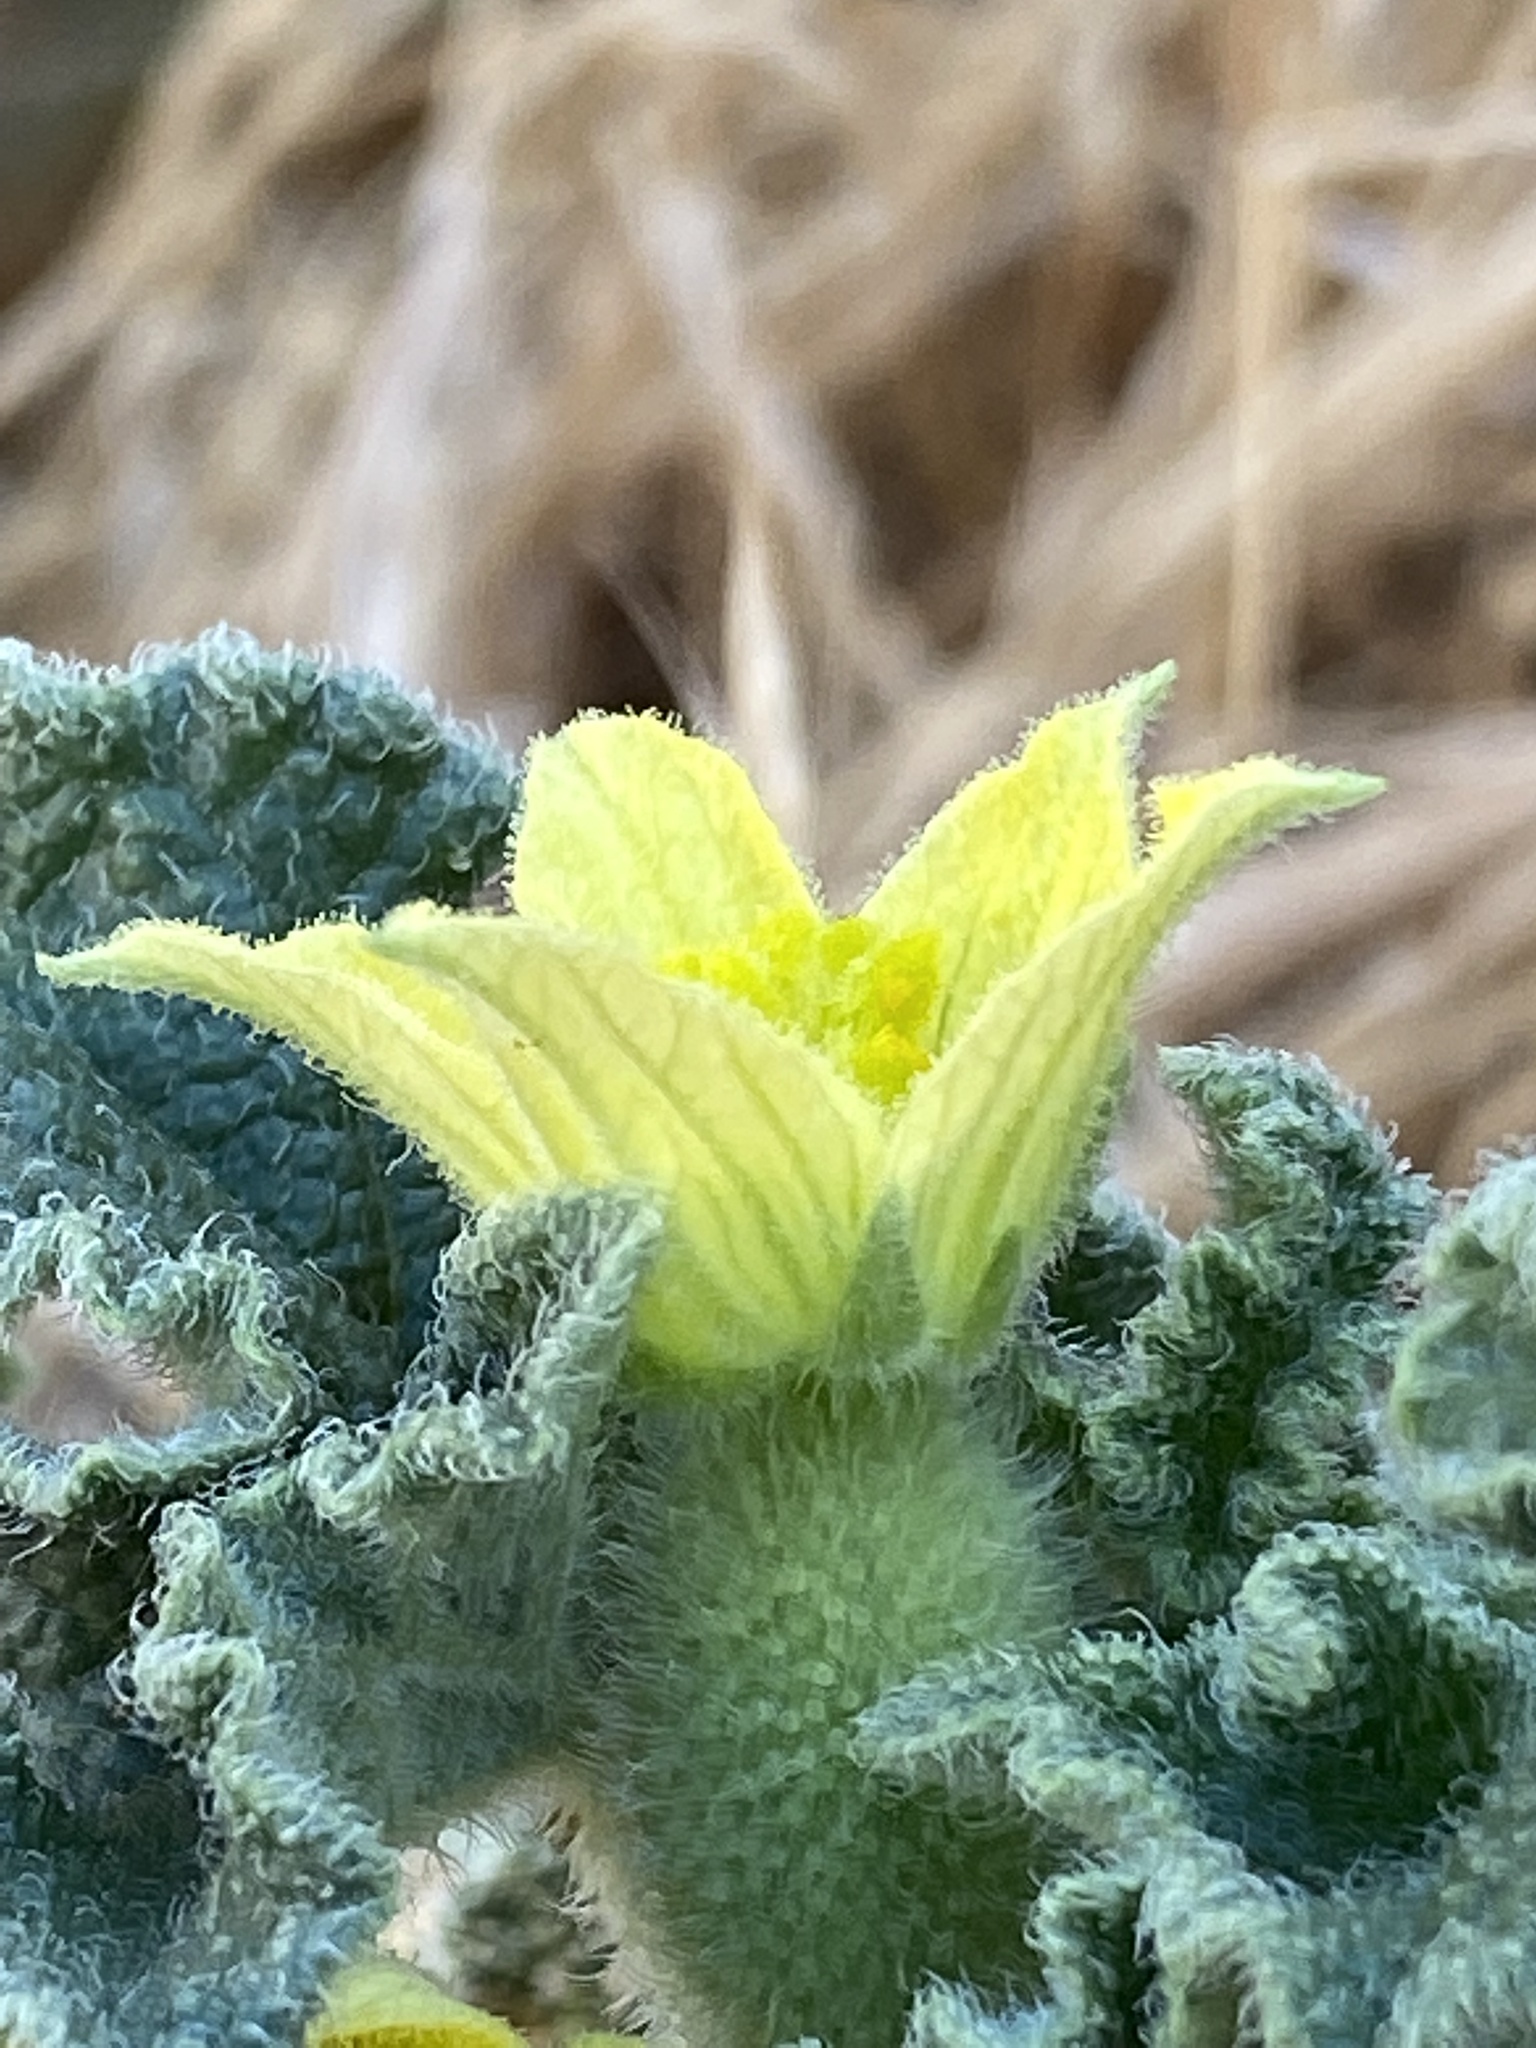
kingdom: Plantae
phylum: Tracheophyta
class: Magnoliopsida
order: Cucurbitales
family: Cucurbitaceae
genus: Ecballium
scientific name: Ecballium elaterium
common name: Squirting cucumber
